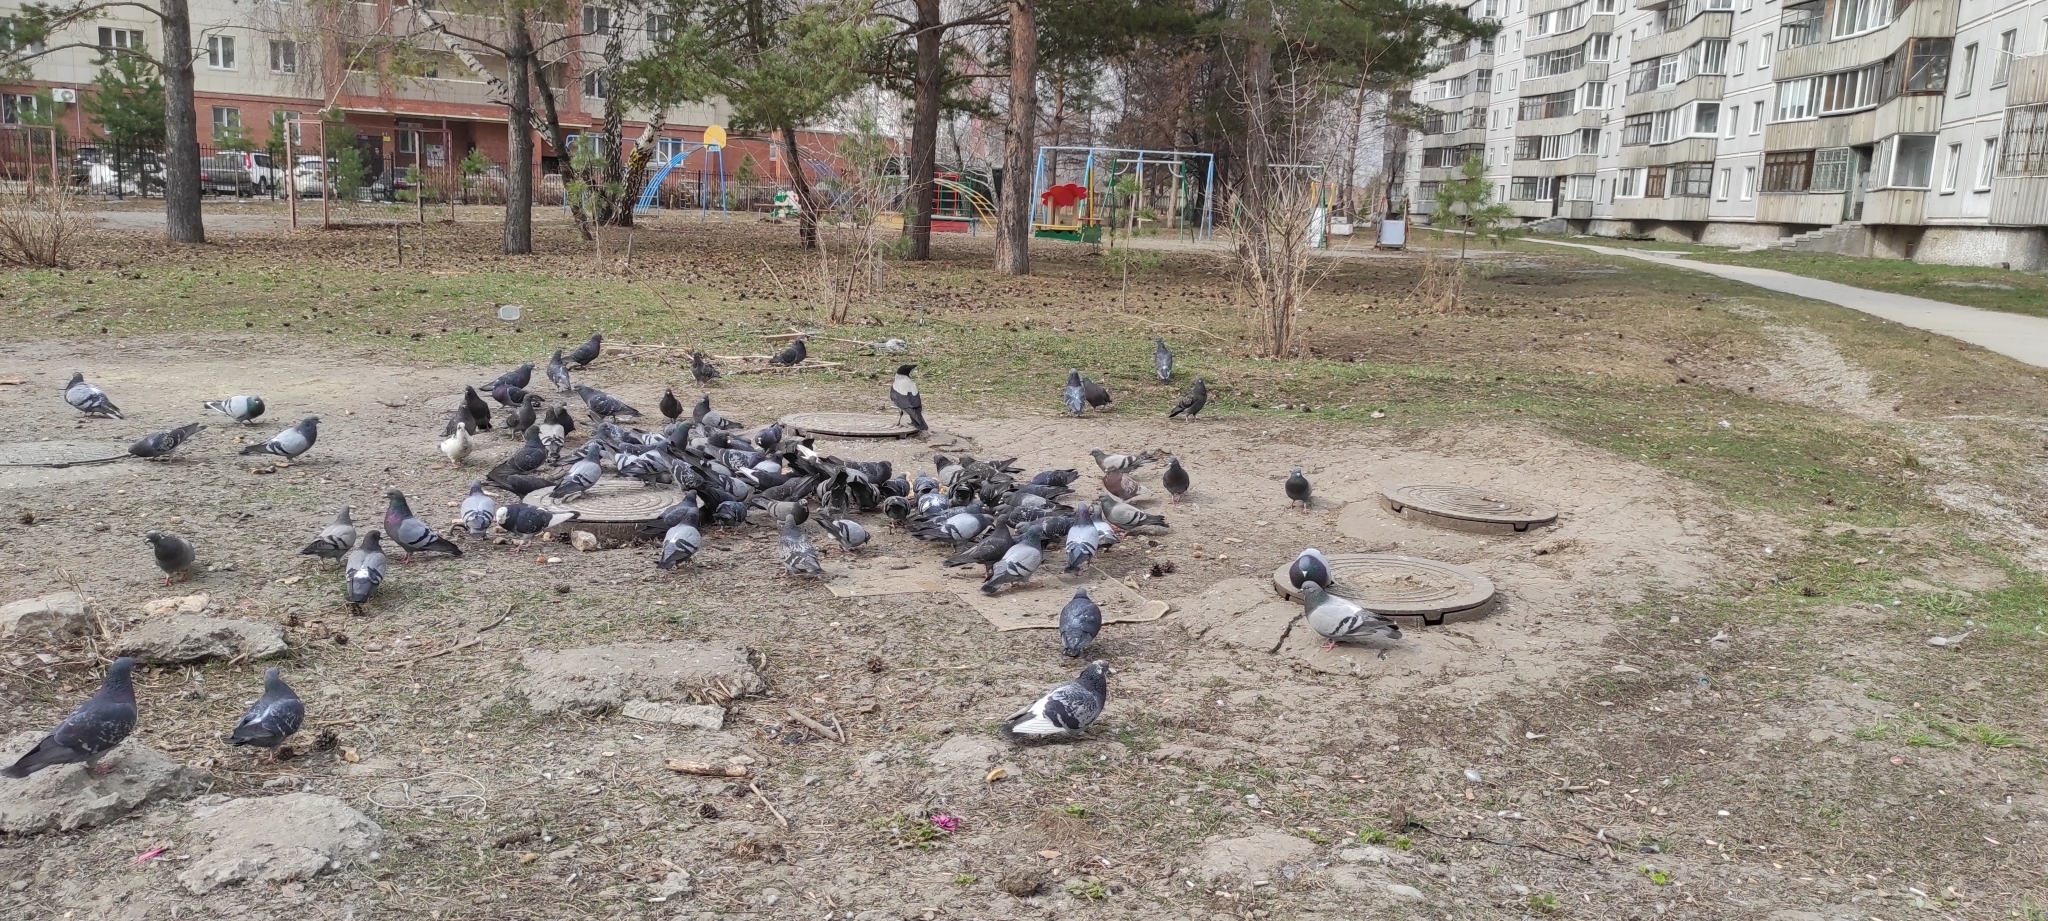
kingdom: Animalia
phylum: Chordata
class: Aves
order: Passeriformes
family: Corvidae
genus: Corvus
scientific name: Corvus cornix
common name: Hooded crow
